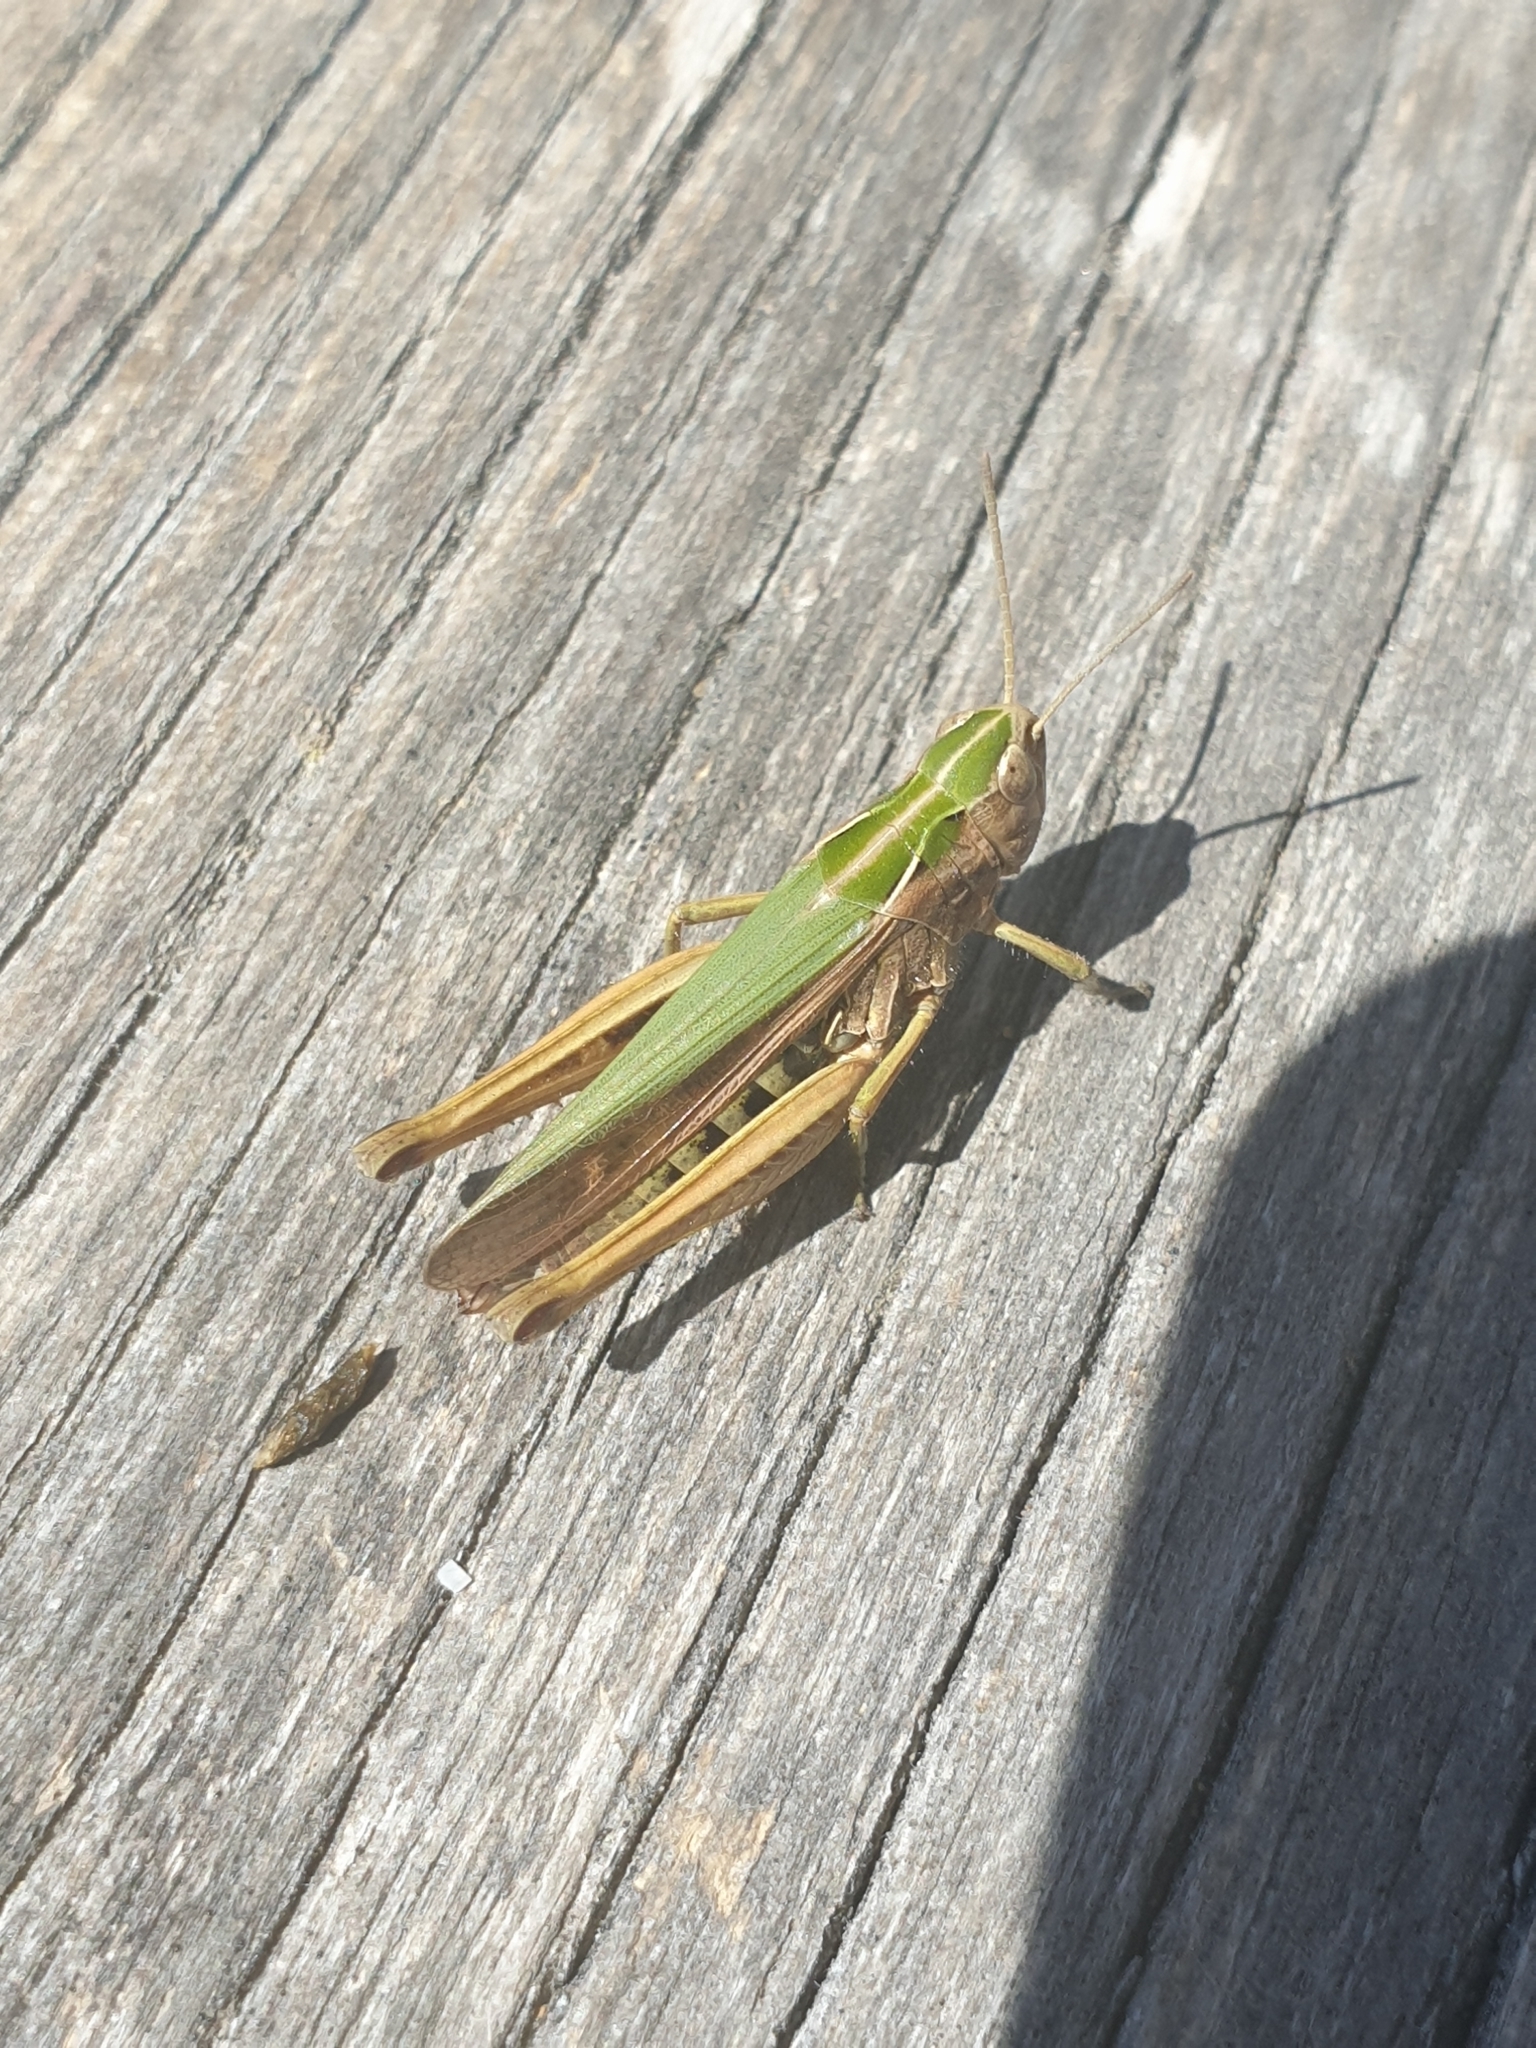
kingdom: Animalia
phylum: Arthropoda
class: Insecta
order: Orthoptera
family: Acrididae
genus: Omocestus
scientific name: Omocestus viridulus
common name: Common green grasshopper
